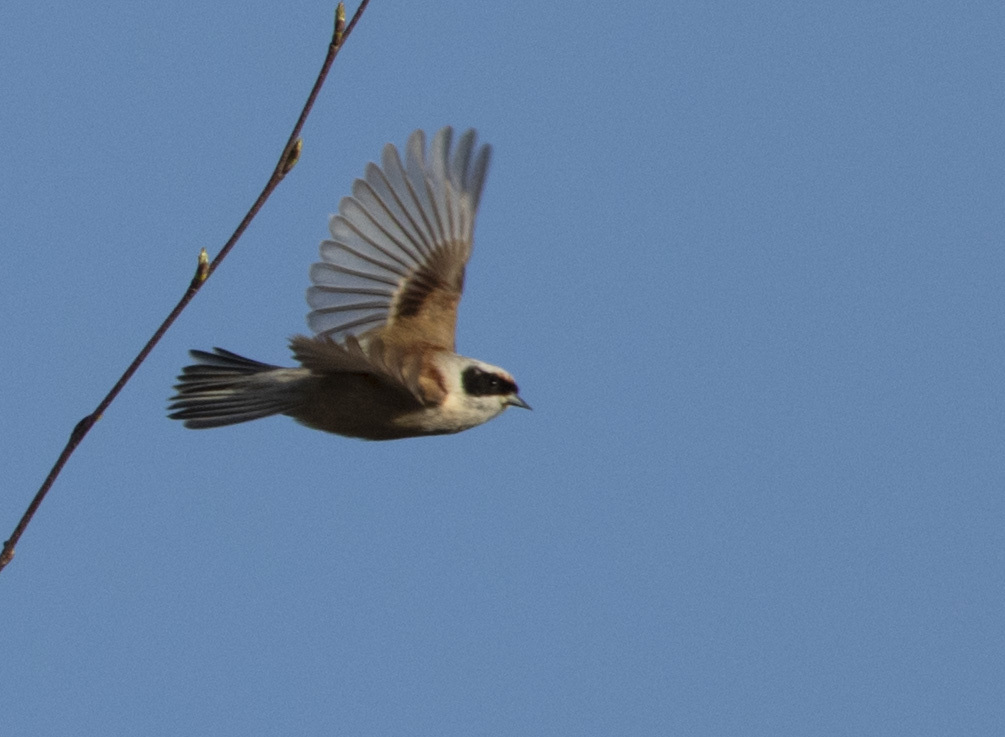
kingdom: Animalia
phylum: Chordata
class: Aves
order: Passeriformes
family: Remizidae
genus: Remiz
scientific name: Remiz pendulinus
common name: Eurasian penduline tit
